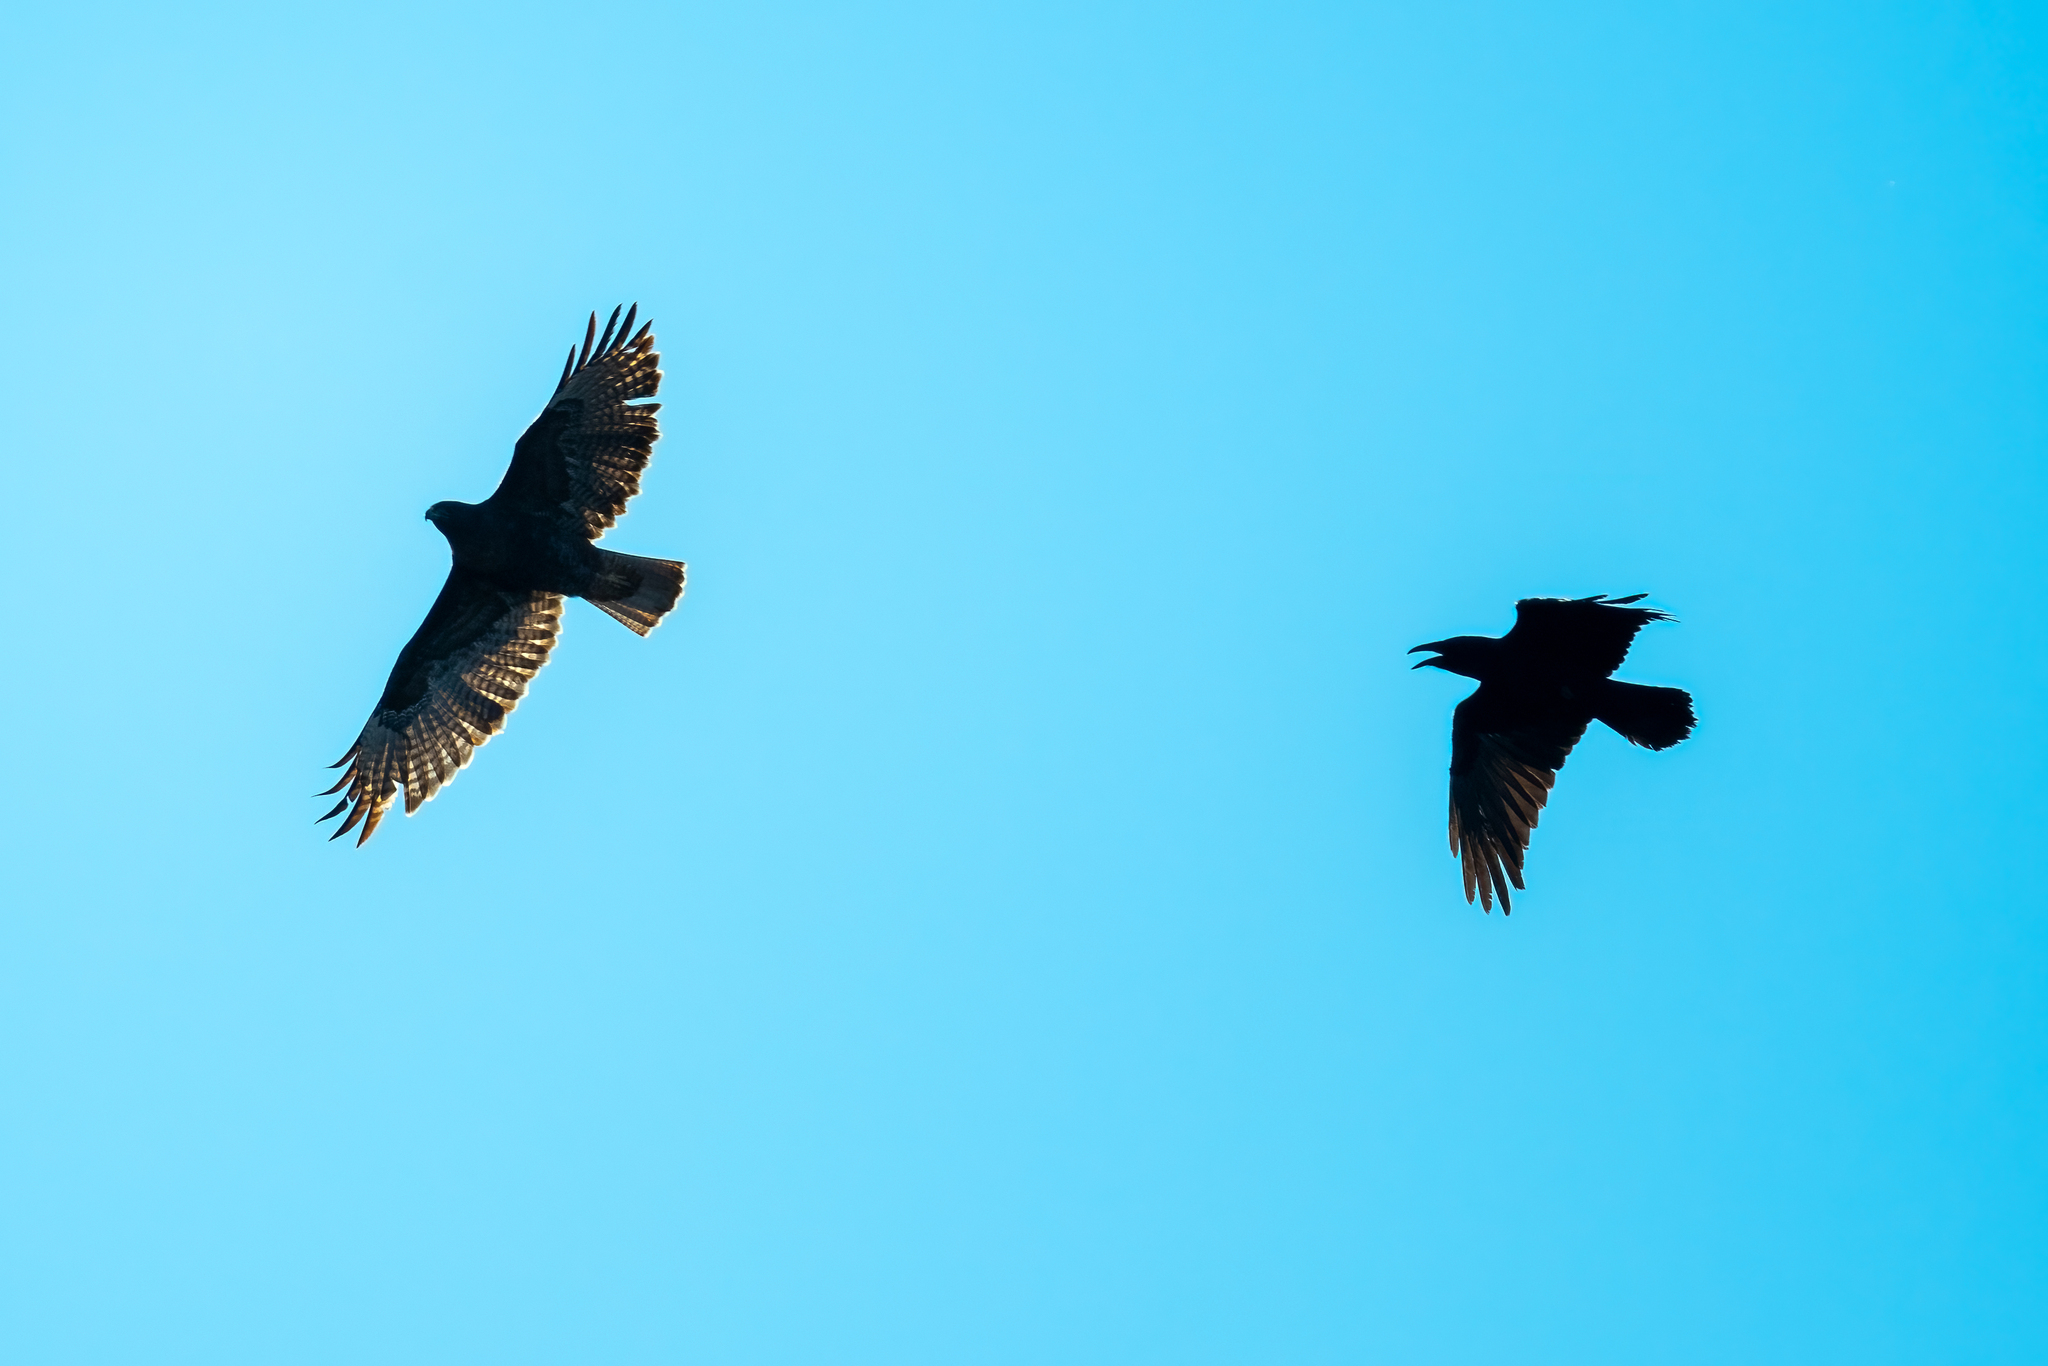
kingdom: Animalia
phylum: Chordata
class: Aves
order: Accipitriformes
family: Accipitridae
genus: Buteo
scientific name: Buteo jamaicensis
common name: Red-tailed hawk
